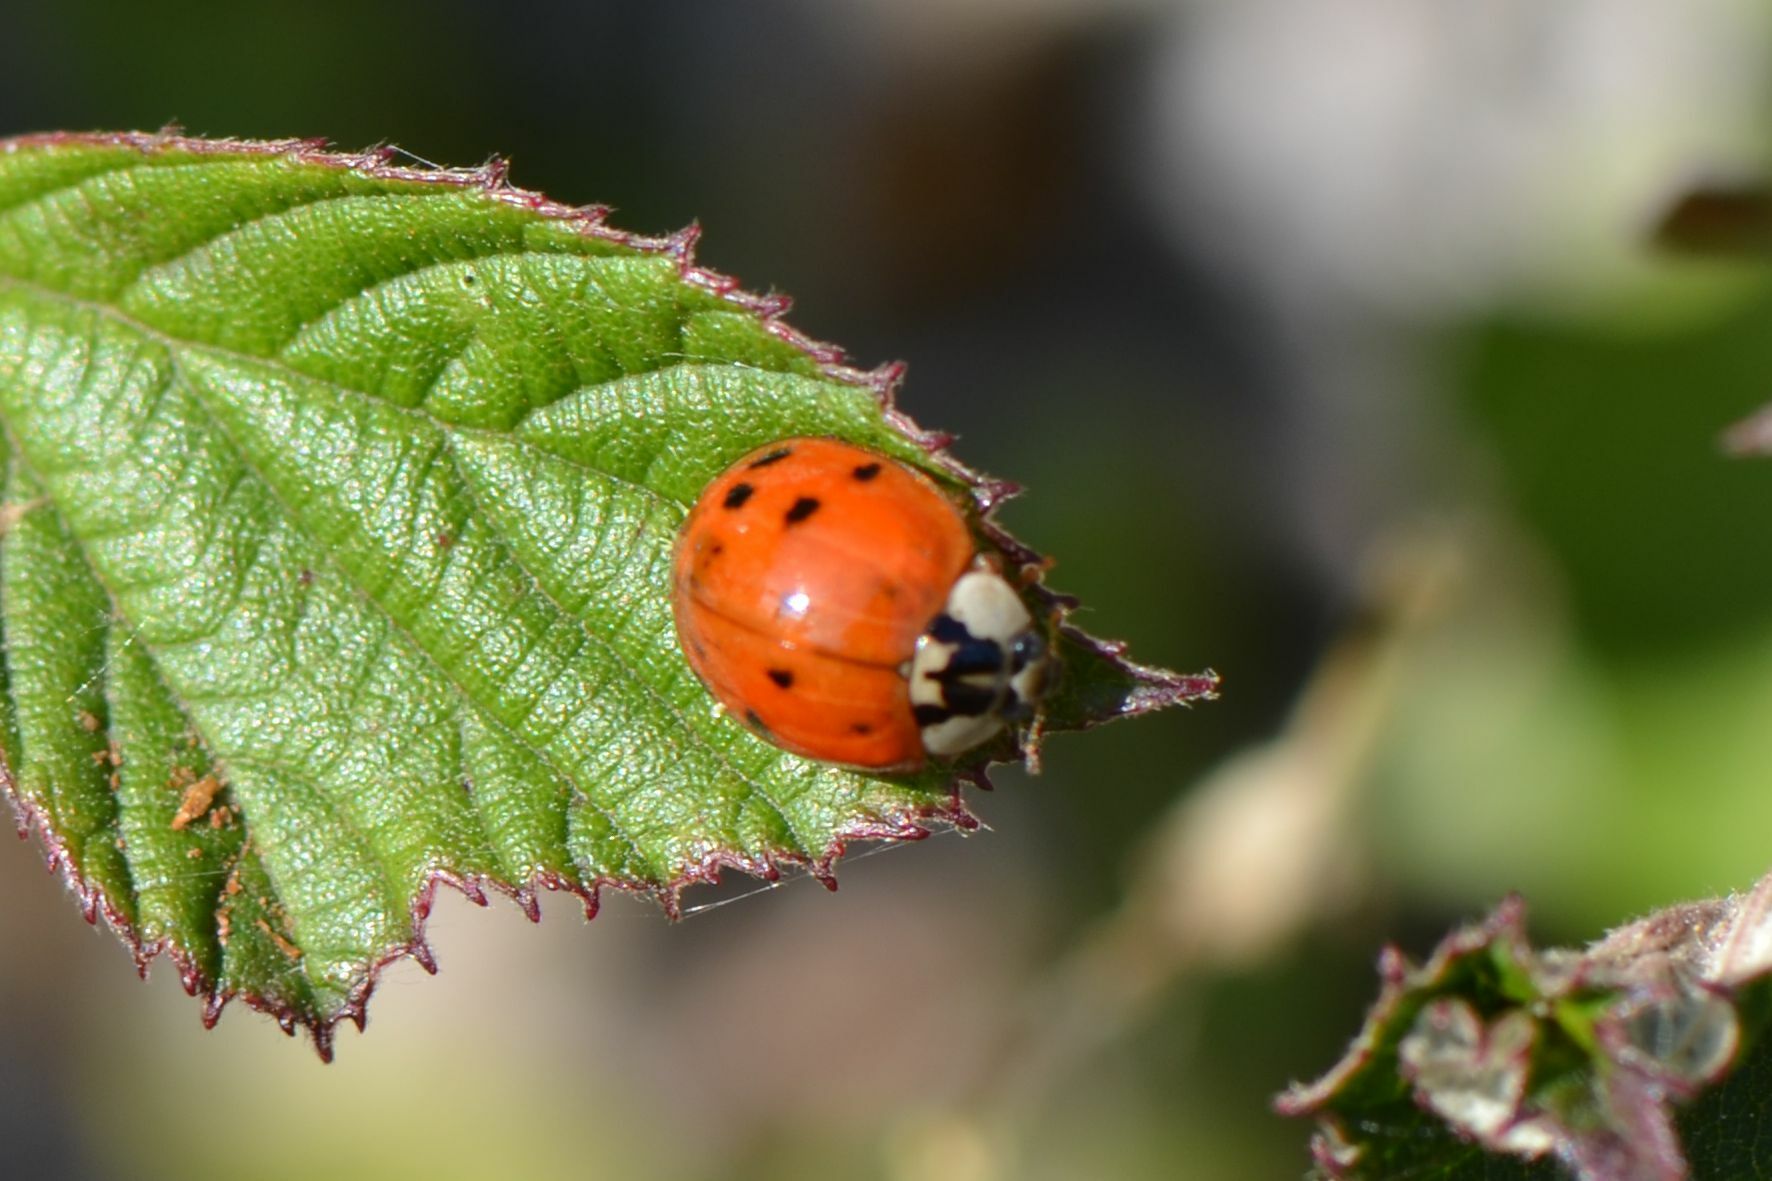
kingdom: Animalia
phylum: Arthropoda
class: Insecta
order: Coleoptera
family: Coccinellidae
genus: Harmonia
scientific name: Harmonia axyridis
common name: Harlequin ladybird
